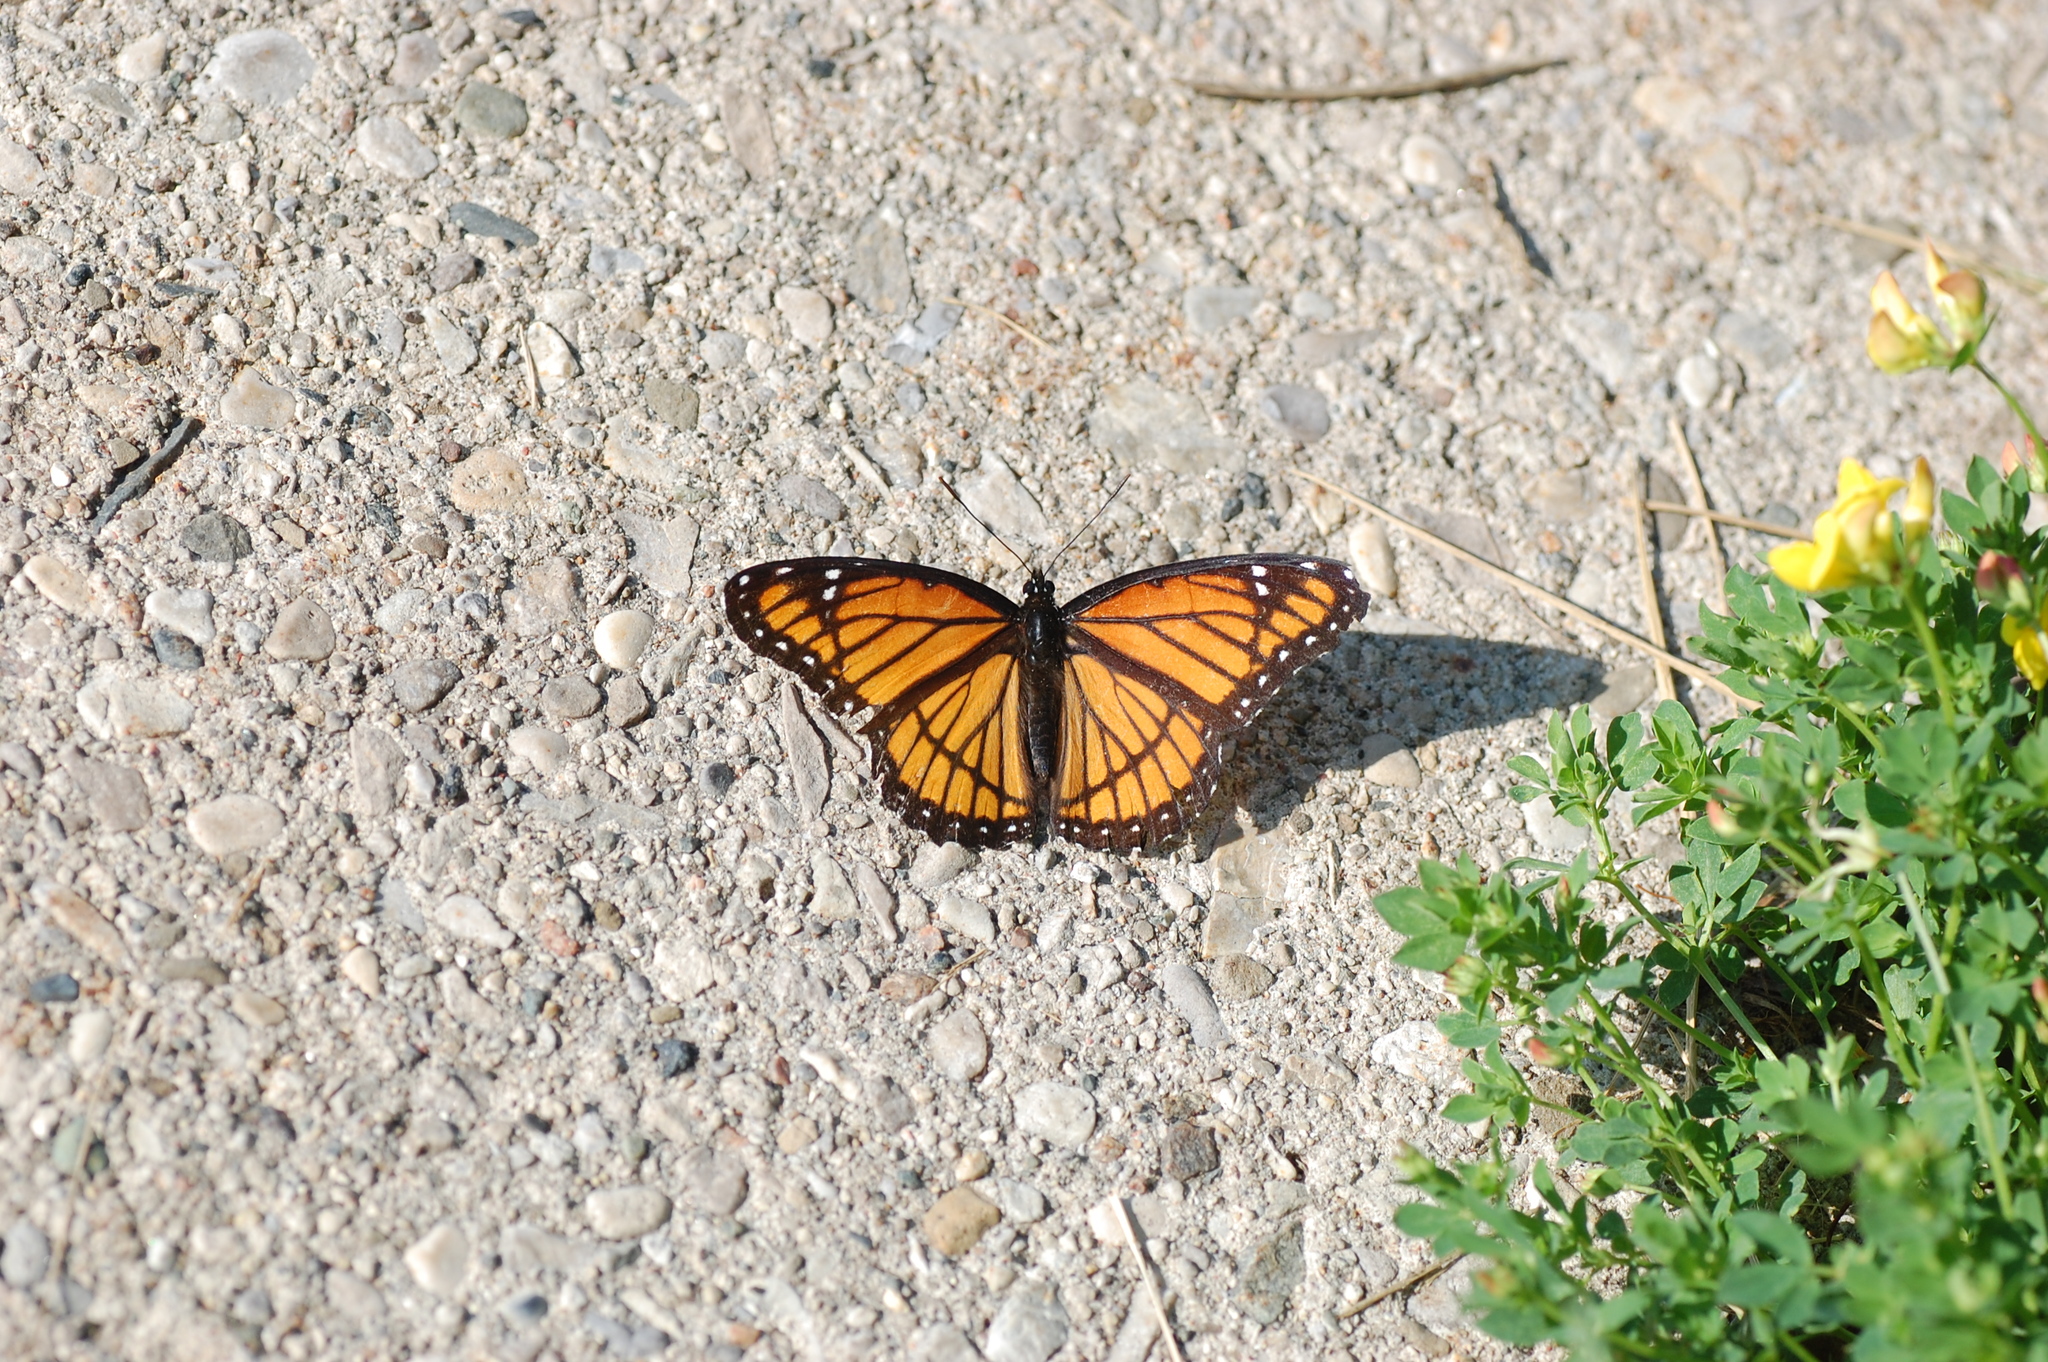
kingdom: Animalia
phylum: Arthropoda
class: Insecta
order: Lepidoptera
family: Nymphalidae
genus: Limenitis
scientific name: Limenitis archippus
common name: Viceroy
